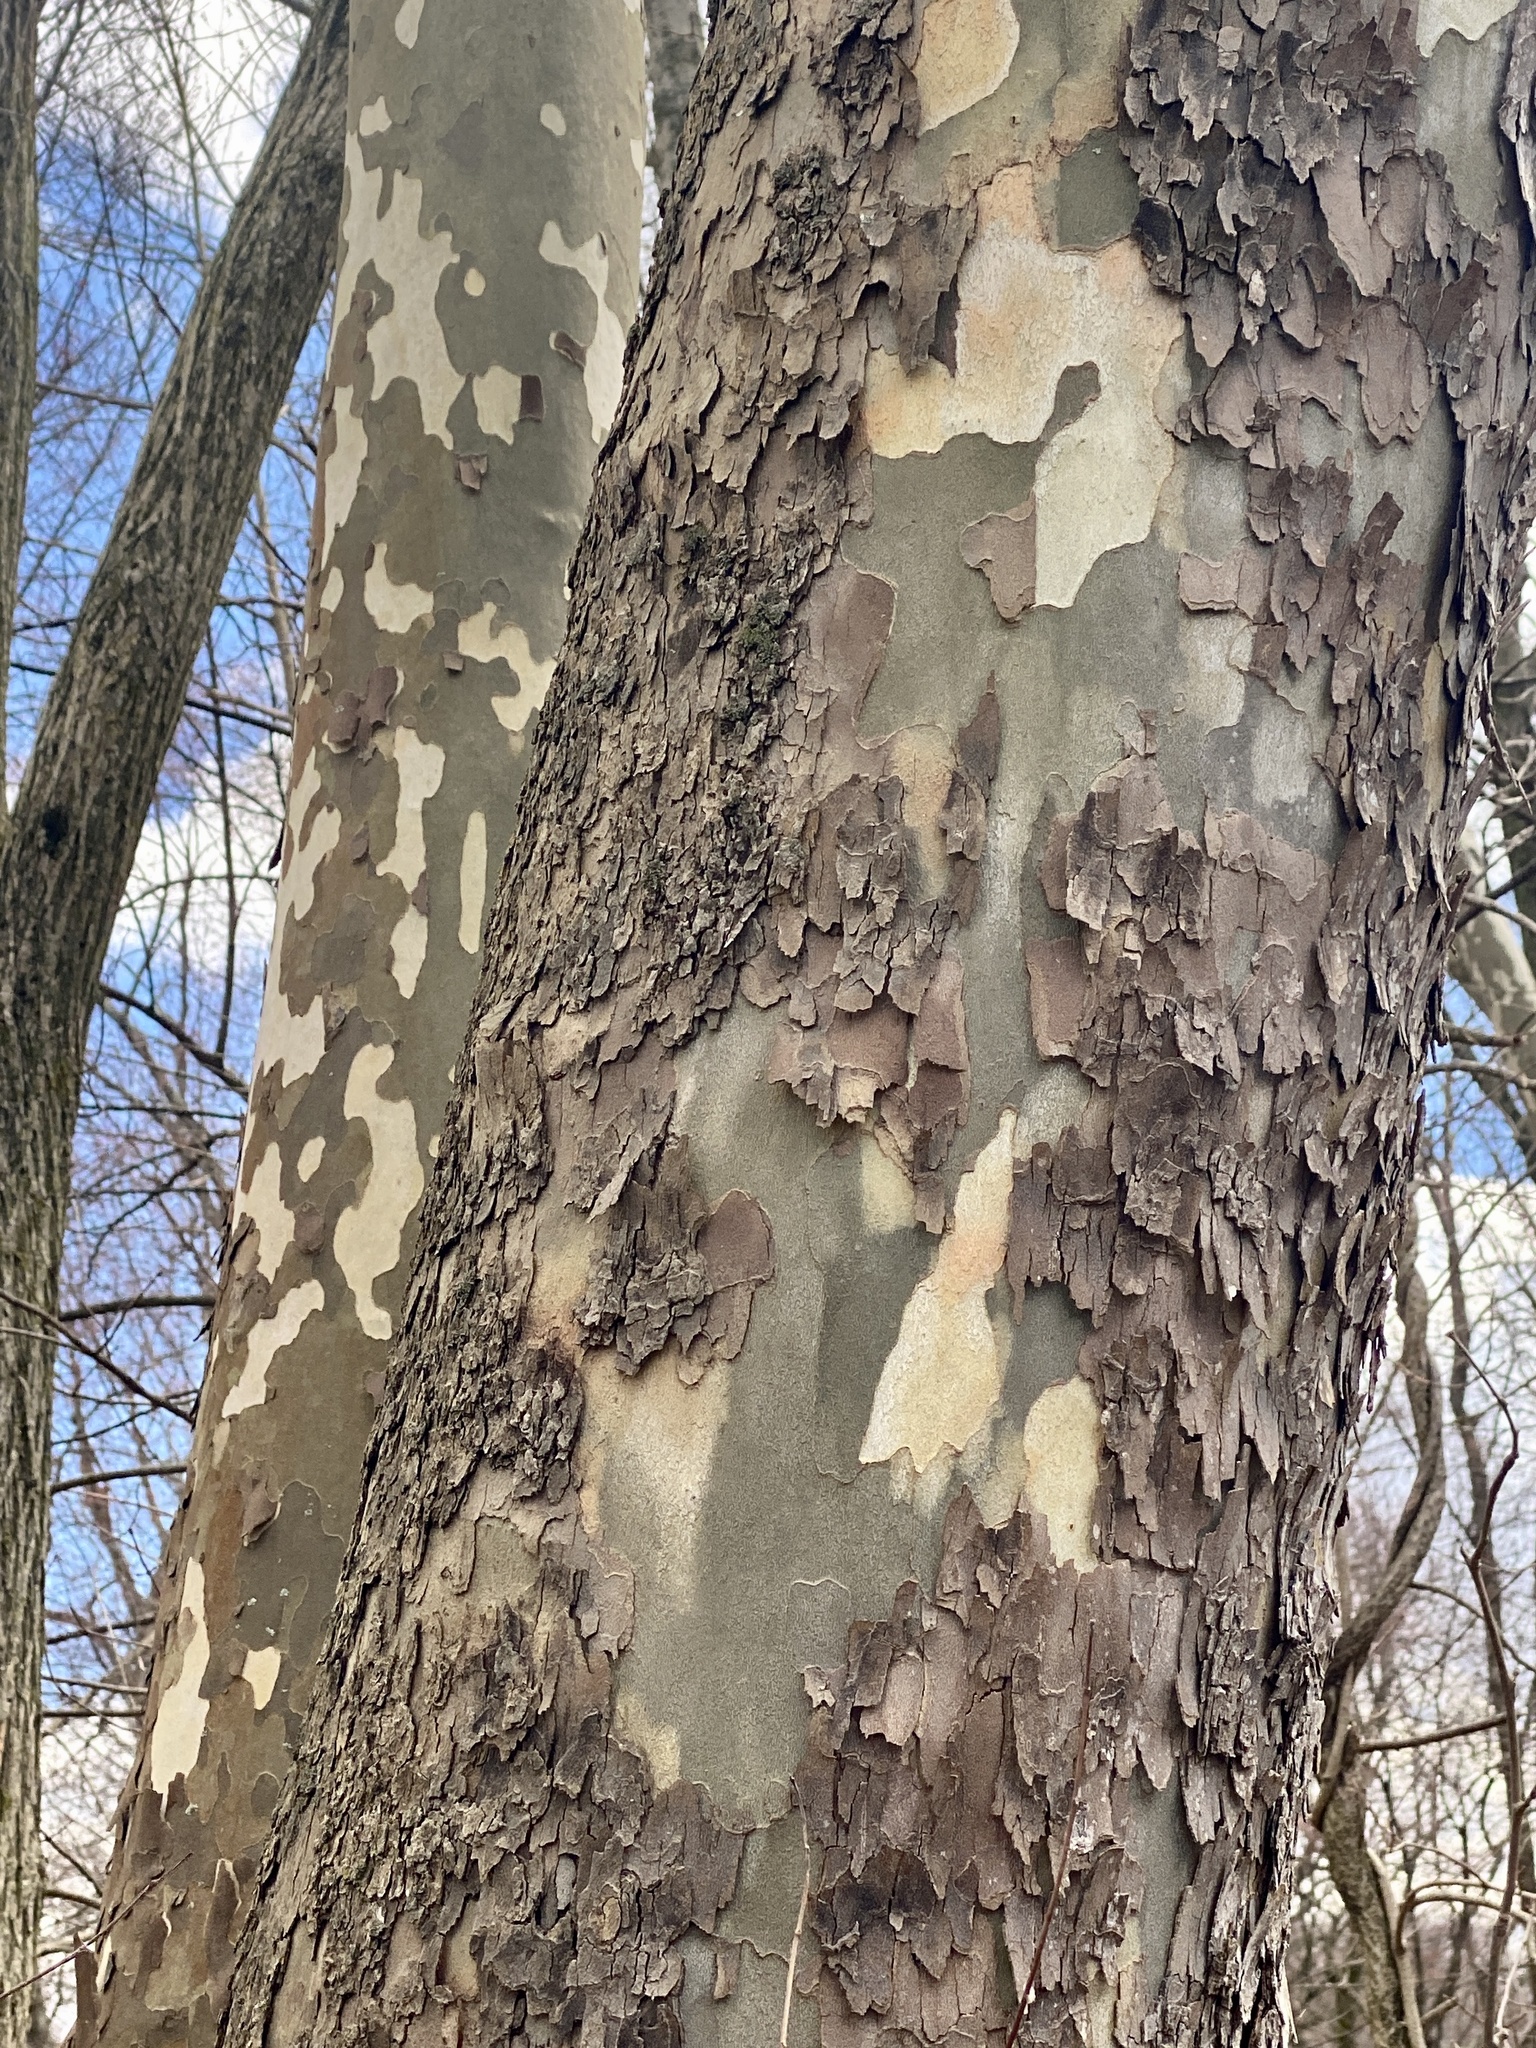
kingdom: Plantae
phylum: Tracheophyta
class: Magnoliopsida
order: Proteales
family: Platanaceae
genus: Platanus
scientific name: Platanus occidentalis
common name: American sycamore
